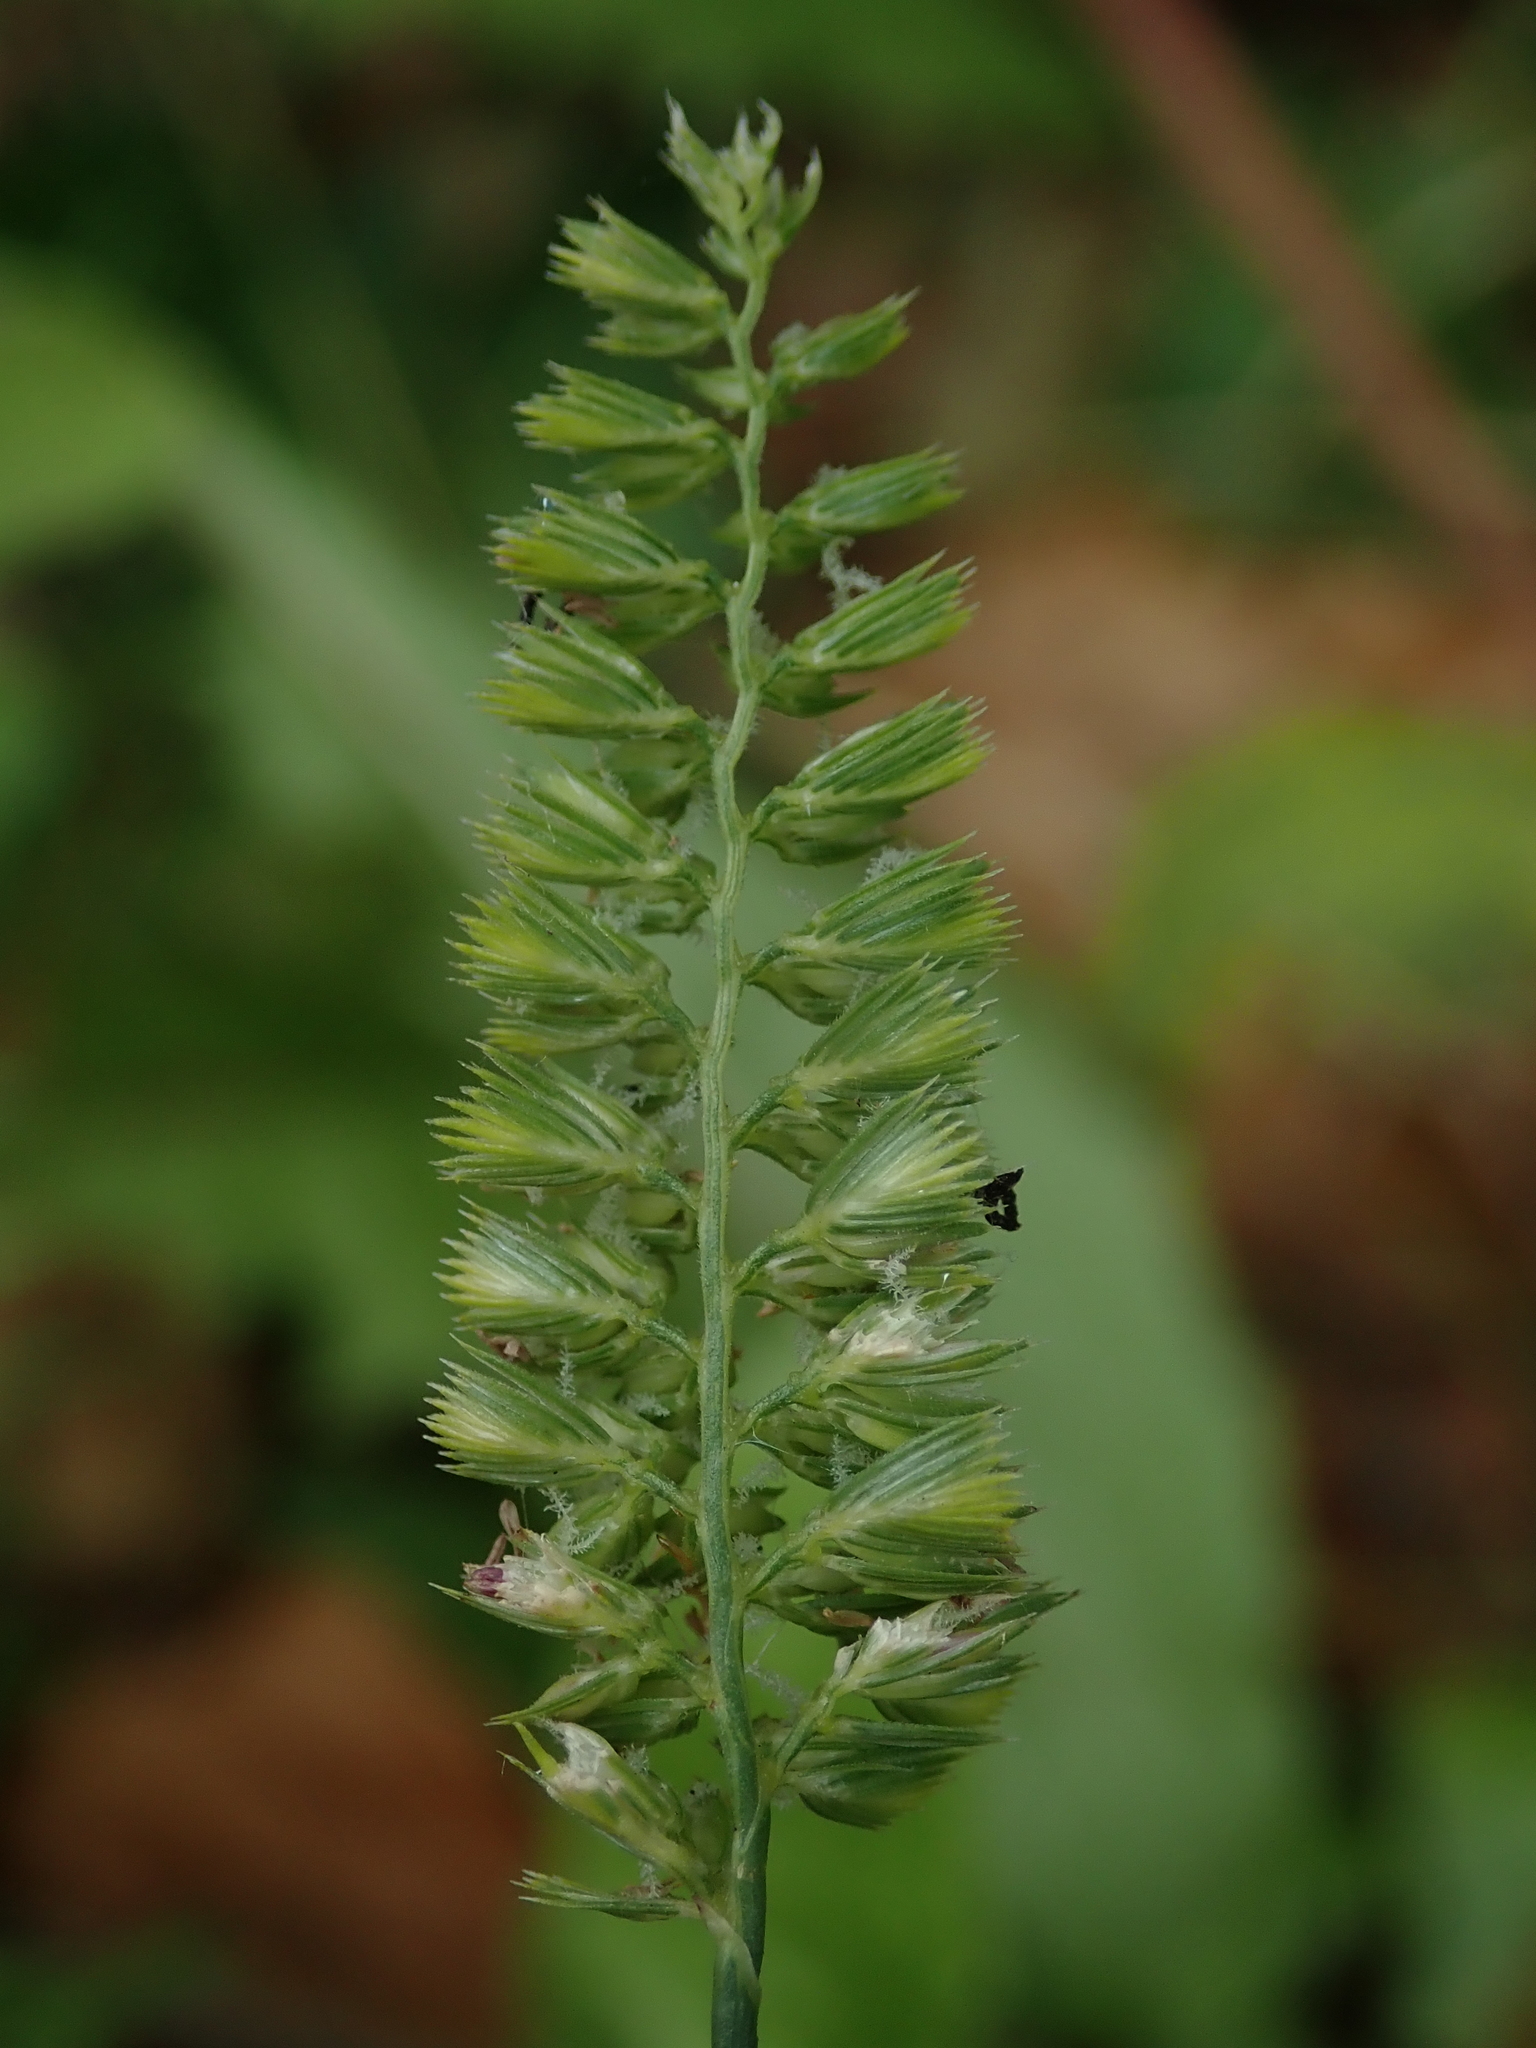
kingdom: Plantae
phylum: Tracheophyta
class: Liliopsida
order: Poales
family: Poaceae
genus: Cynosurus
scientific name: Cynosurus cristatus
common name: Crested dog's-tail
